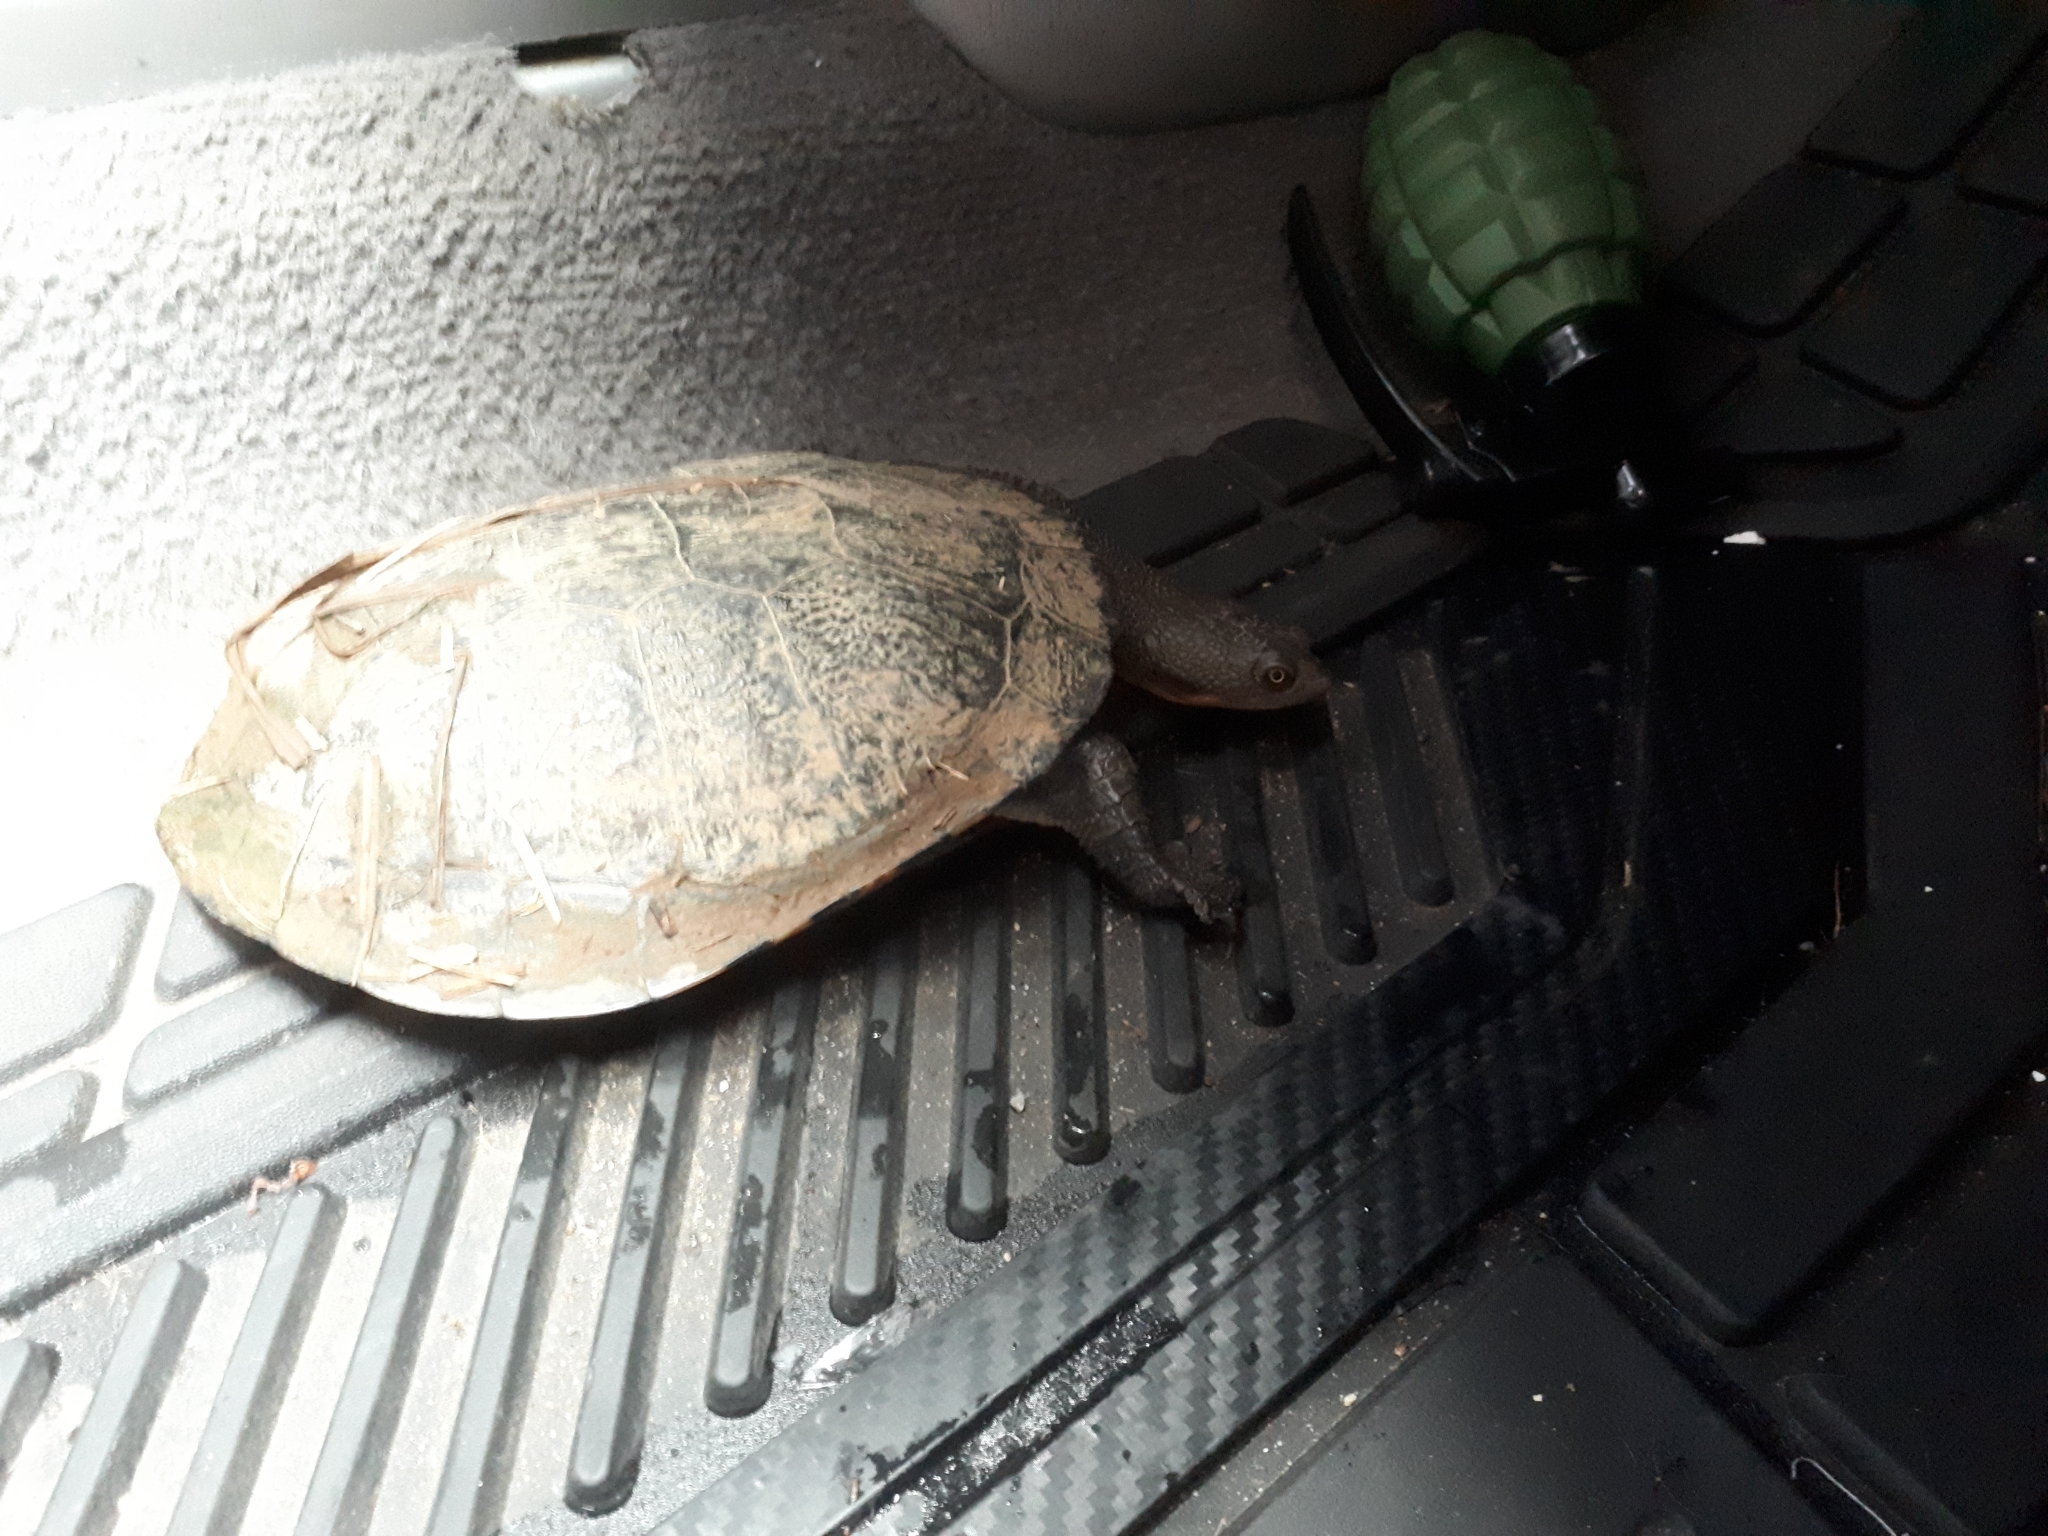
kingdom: Animalia
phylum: Chordata
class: Testudines
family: Chelidae
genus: Chelodina
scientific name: Chelodina longicollis
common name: Eastern snake-necked turtle
